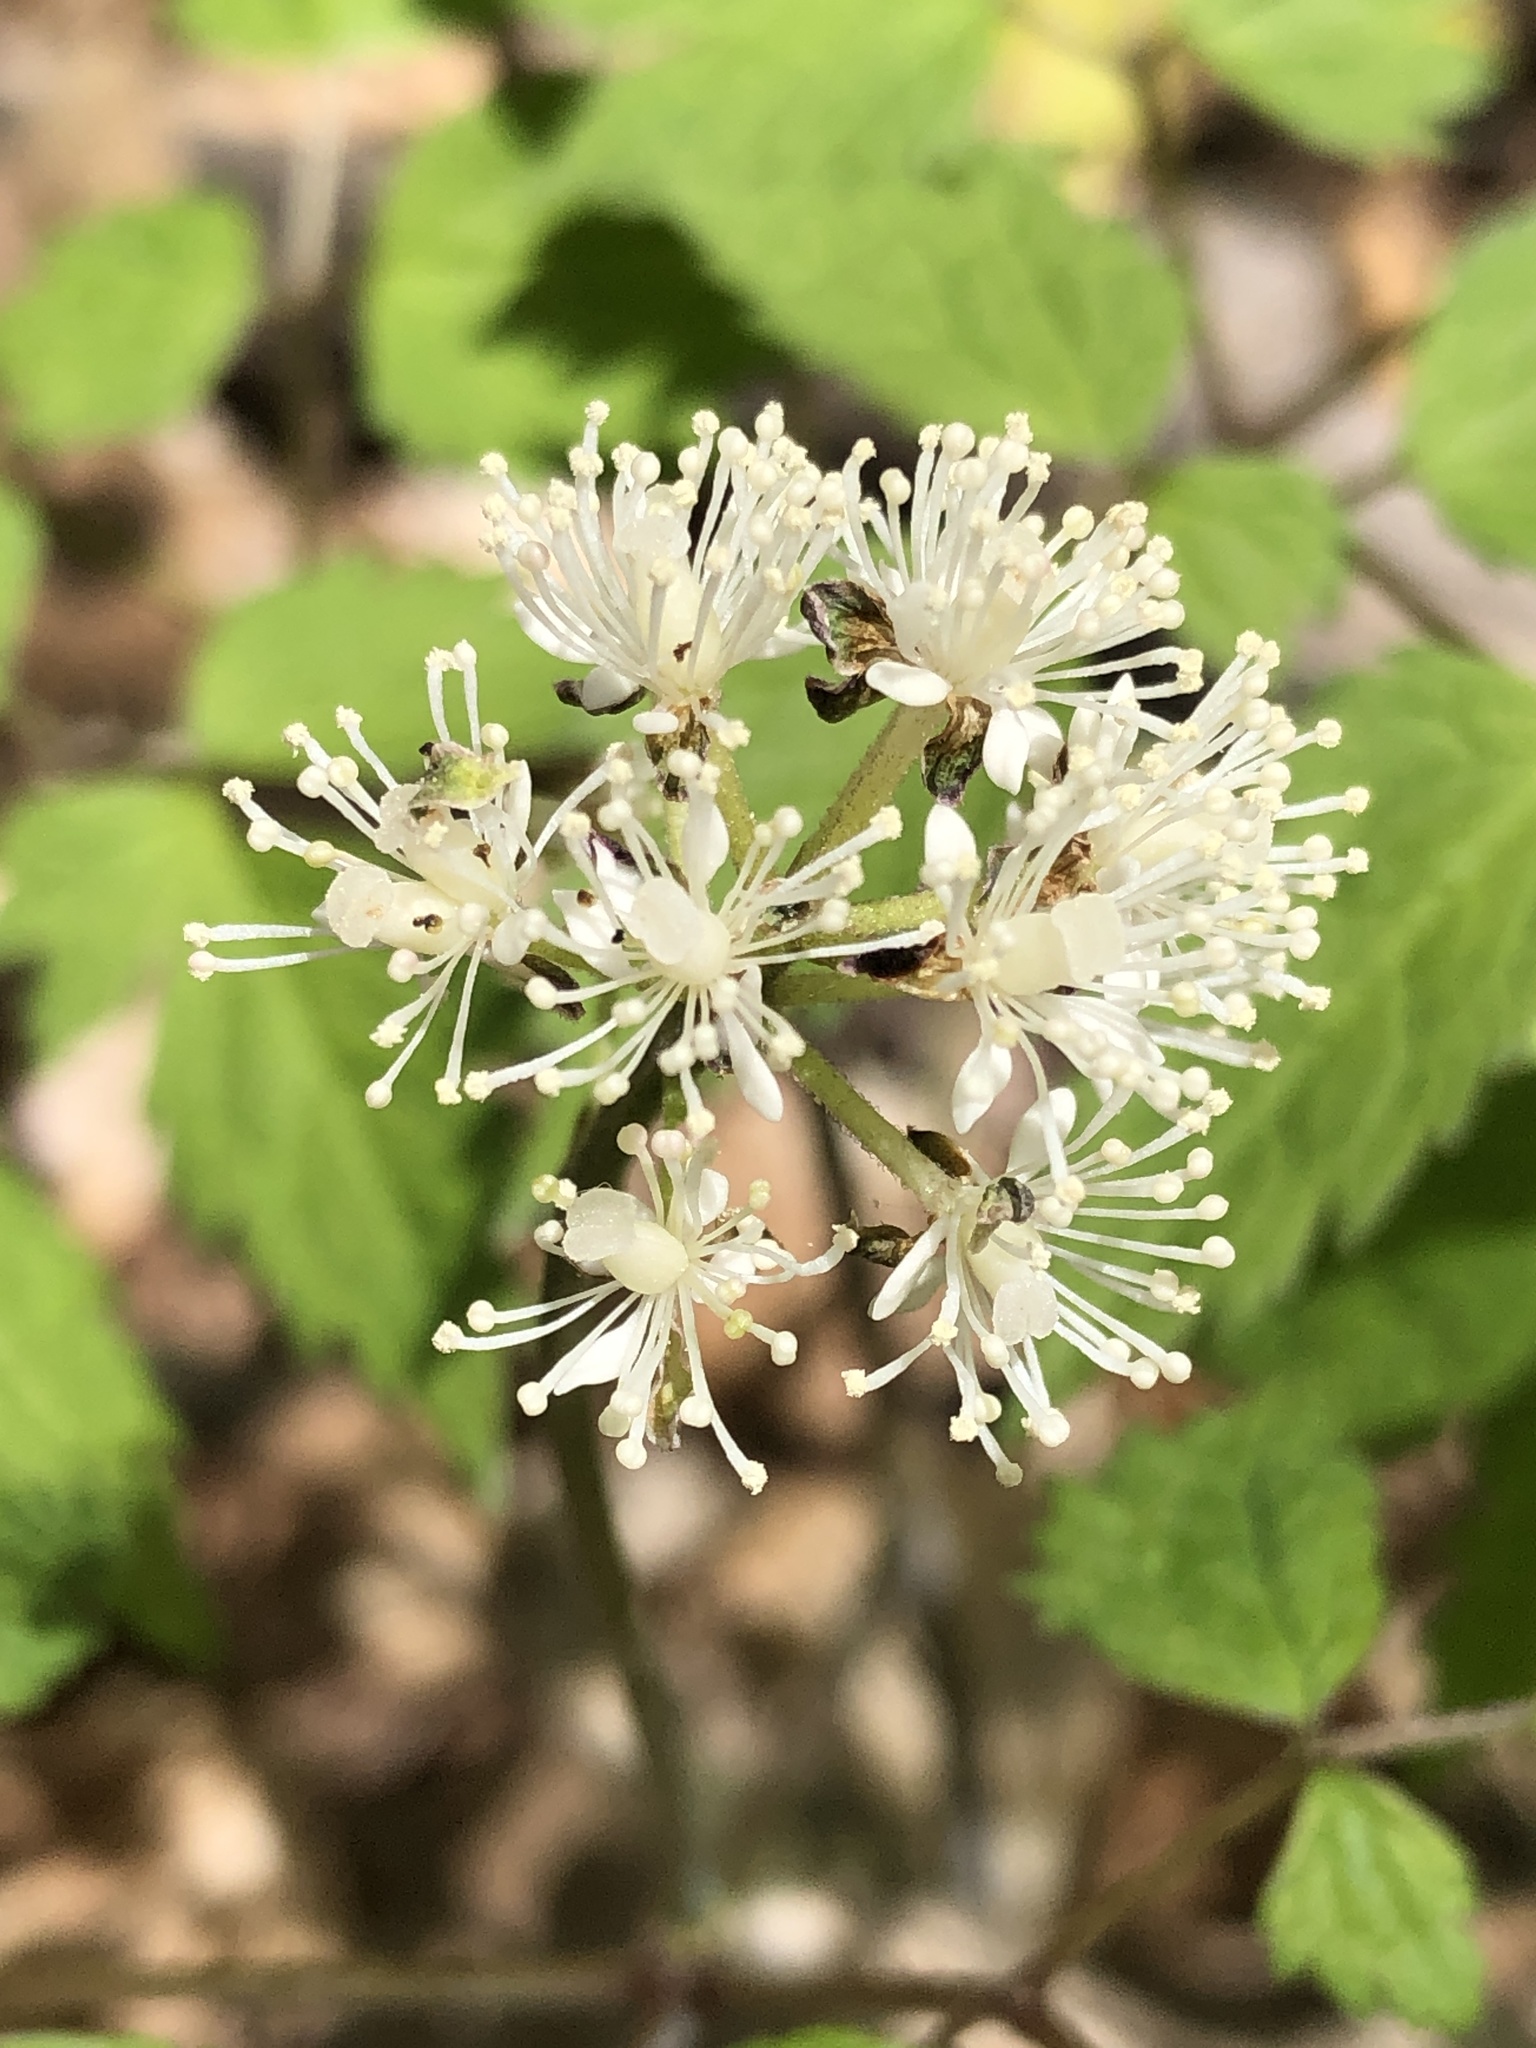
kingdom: Plantae
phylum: Tracheophyta
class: Magnoliopsida
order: Ranunculales
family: Ranunculaceae
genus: Actaea
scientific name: Actaea pachypoda
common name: Doll's-eyes
